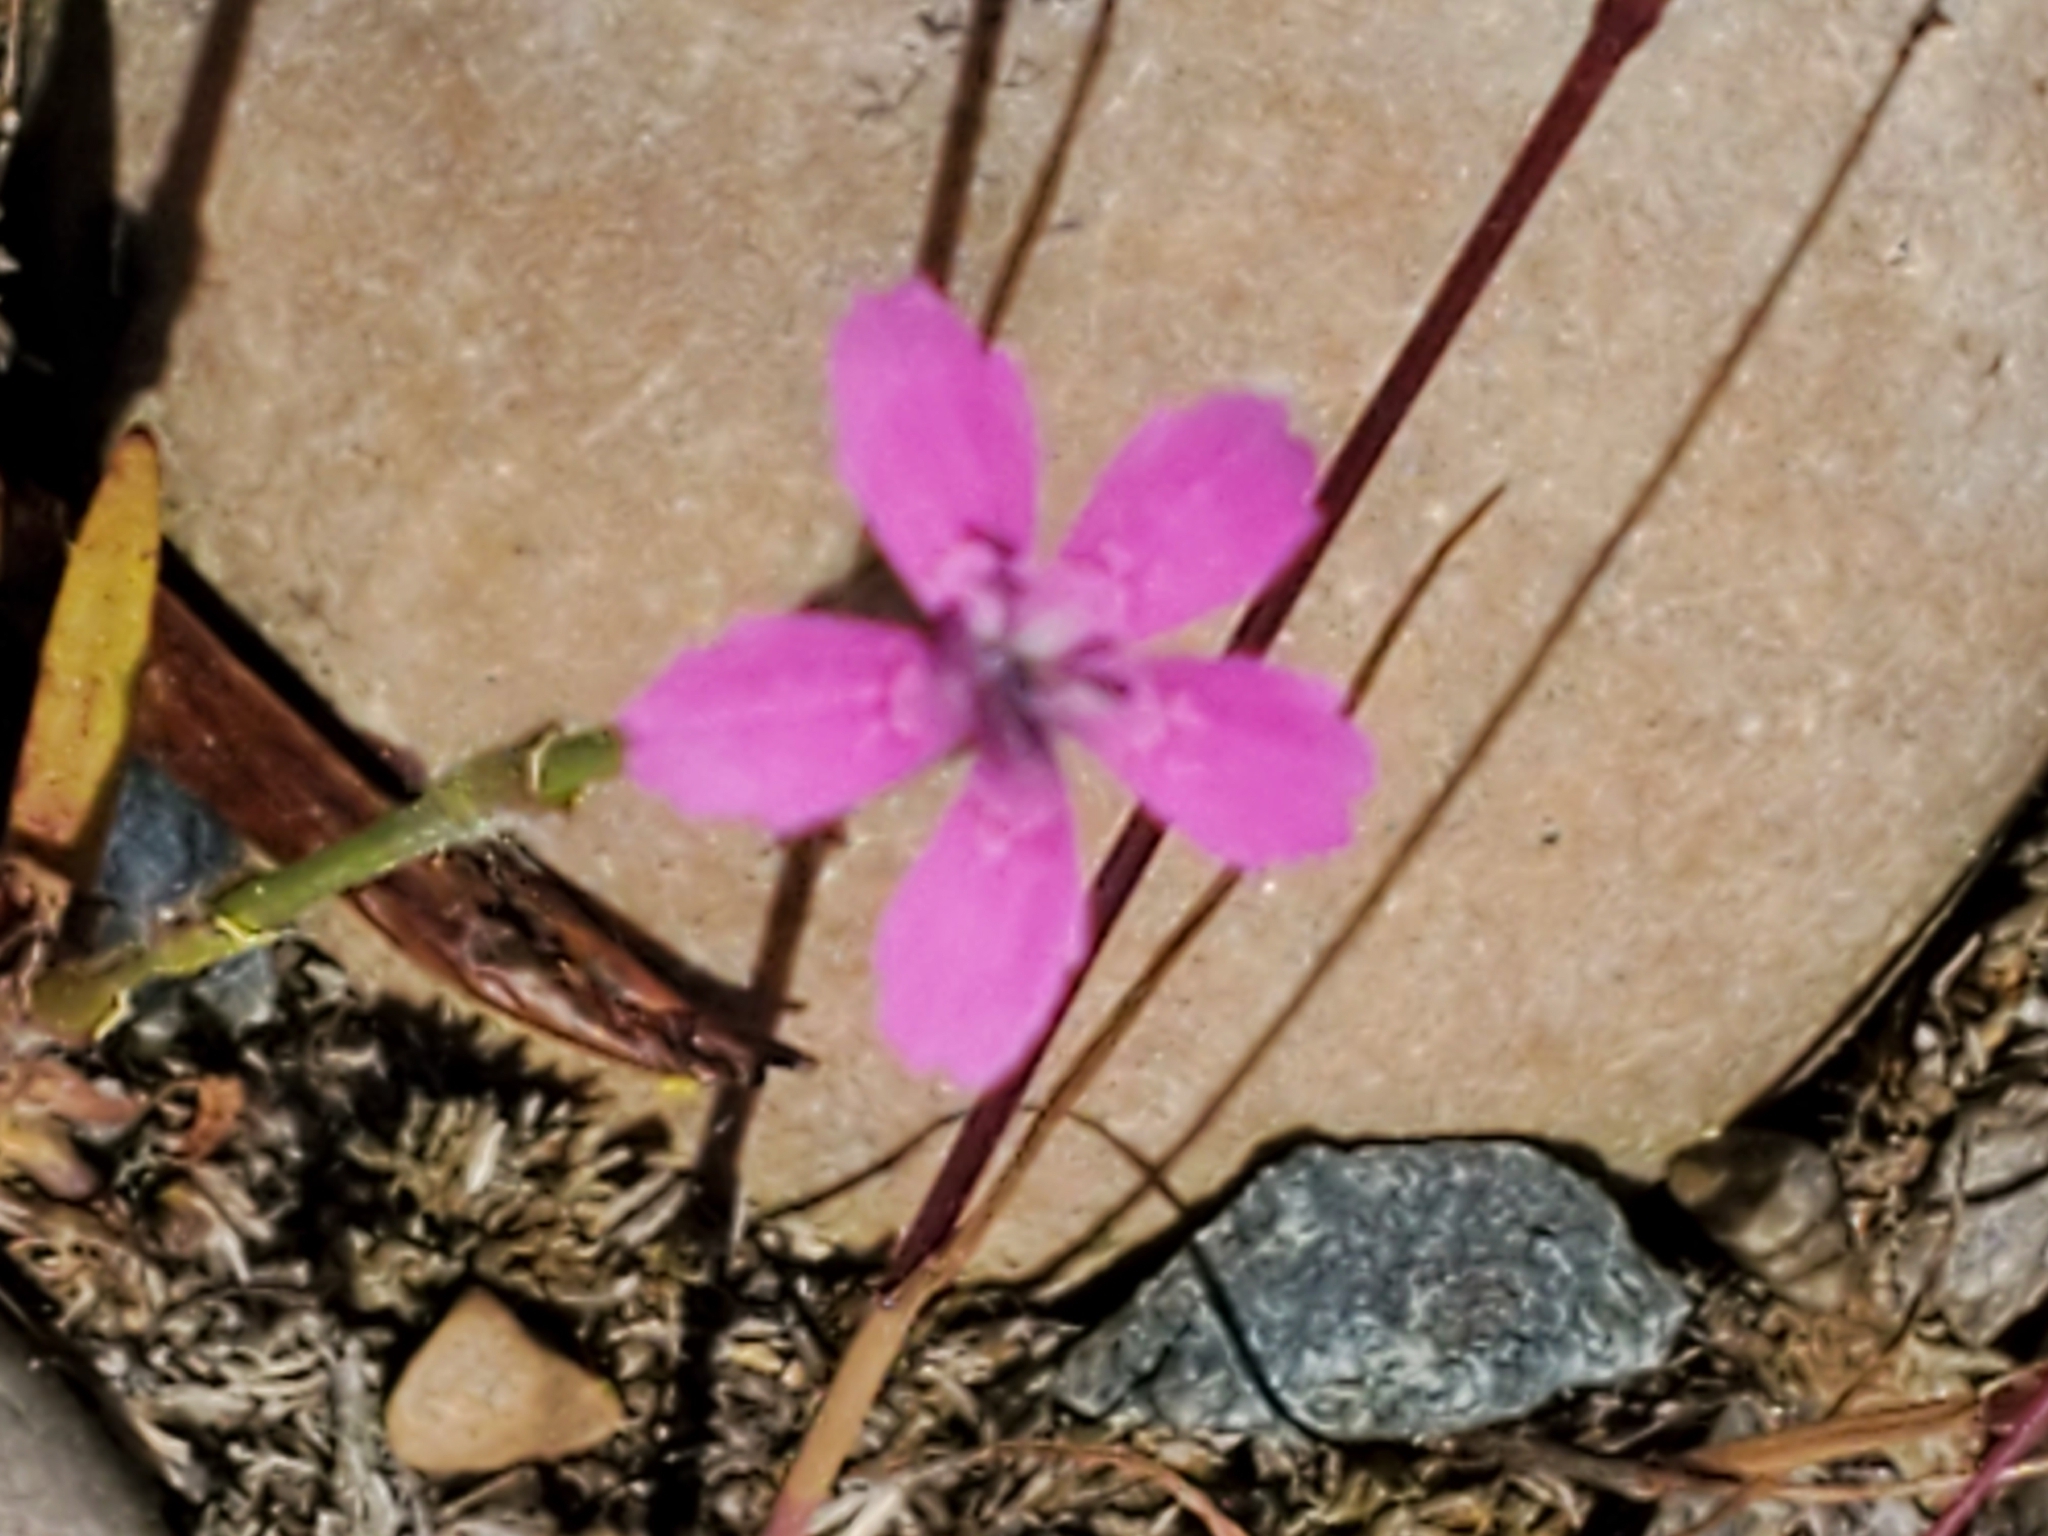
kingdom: Plantae
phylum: Tracheophyta
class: Magnoliopsida
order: Caryophyllales
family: Caryophyllaceae
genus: Dianthus
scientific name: Dianthus armeria
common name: Deptford pink
